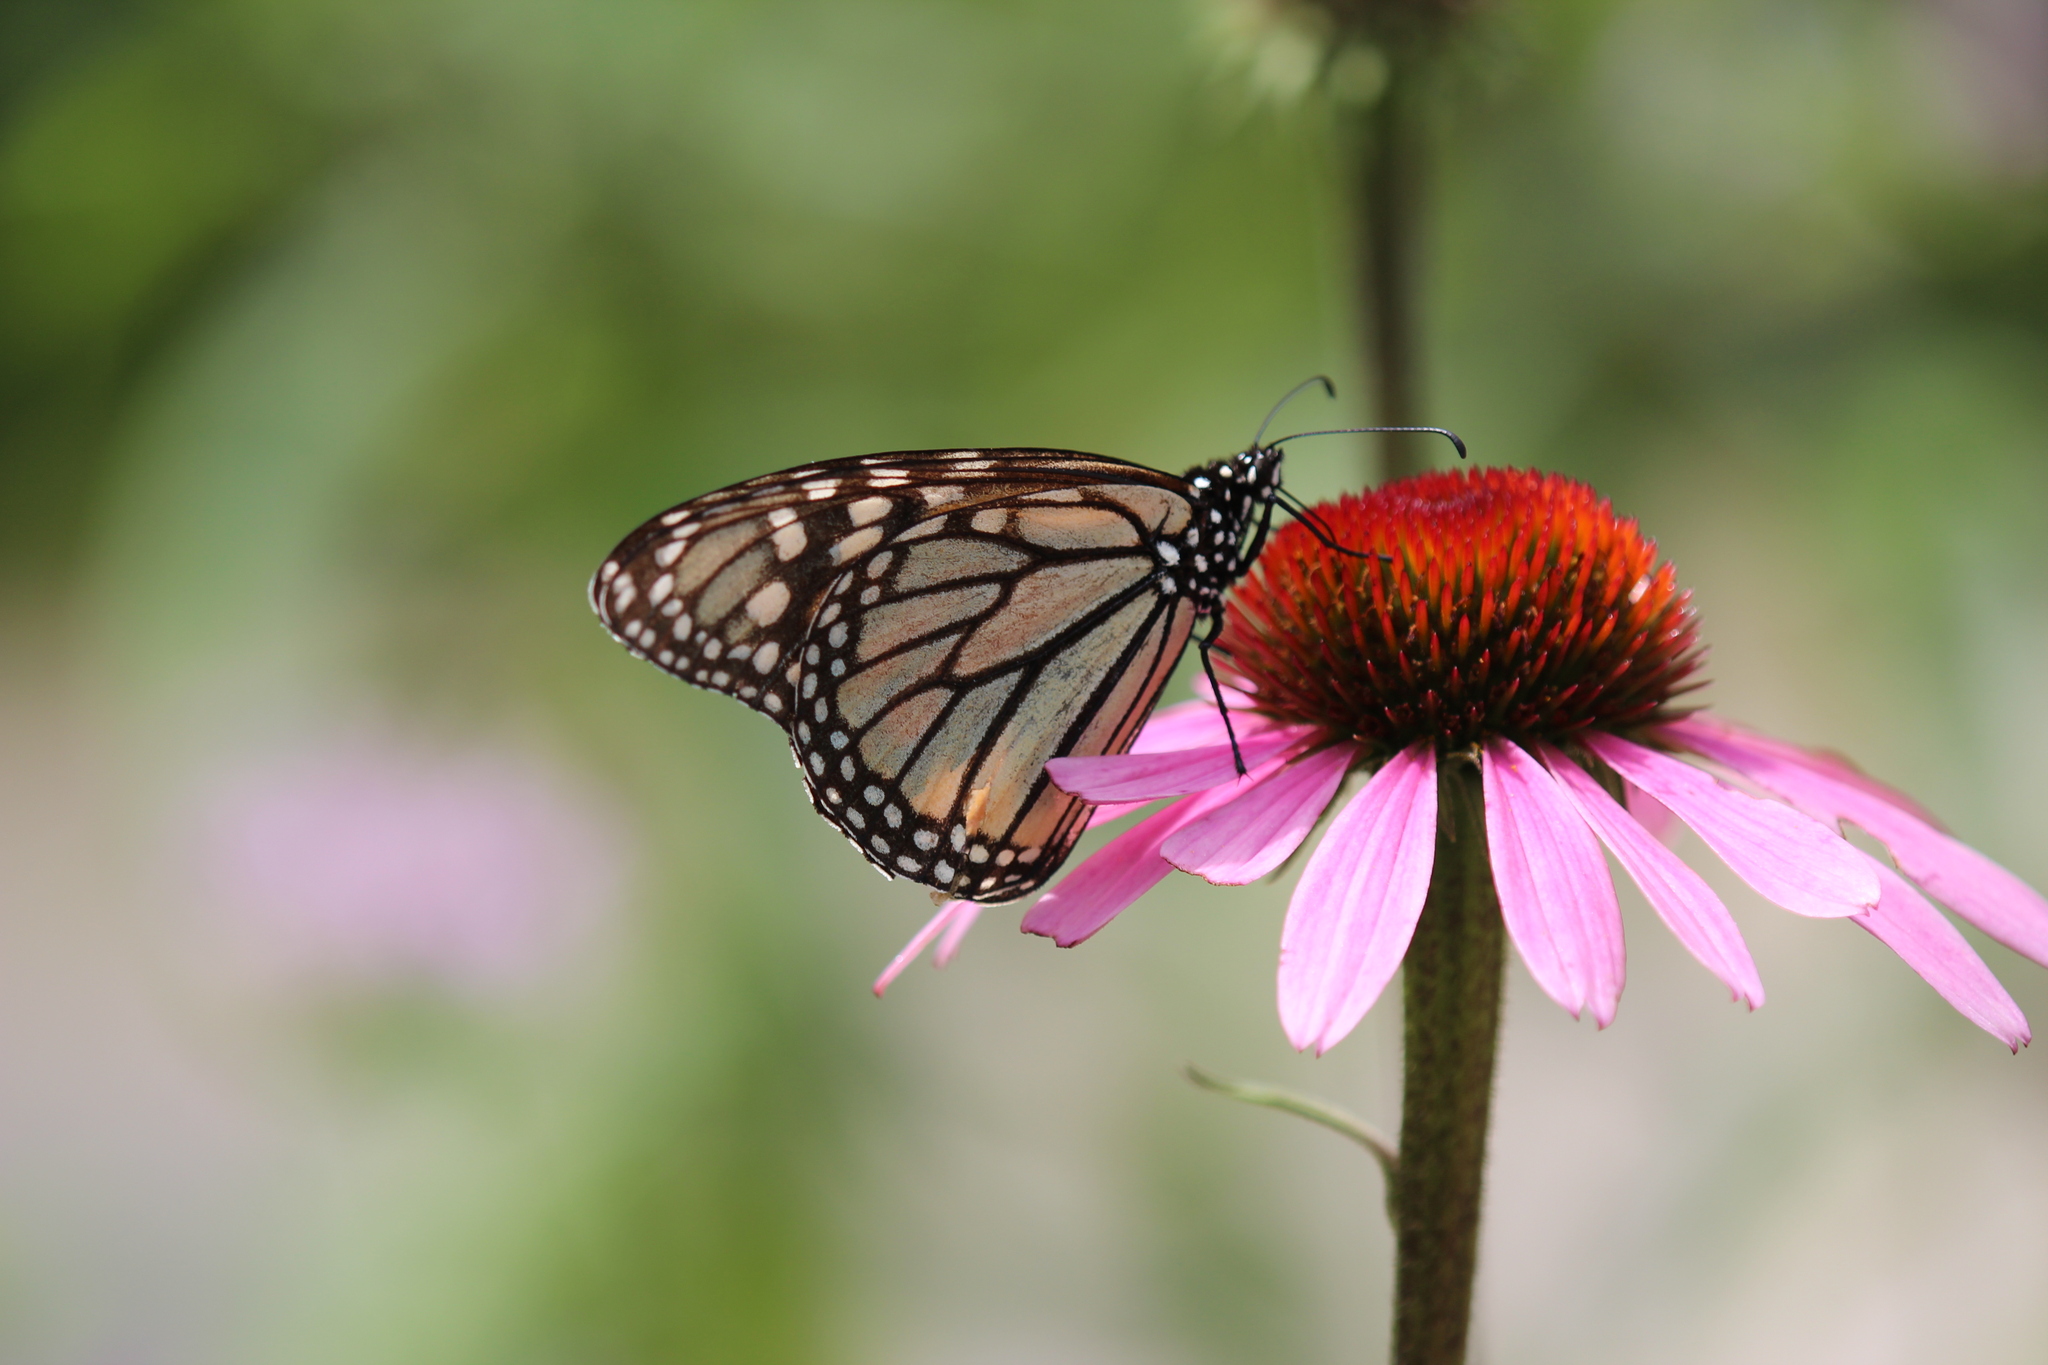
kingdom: Animalia
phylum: Arthropoda
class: Insecta
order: Lepidoptera
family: Nymphalidae
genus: Danaus
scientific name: Danaus plexippus
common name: Monarch
